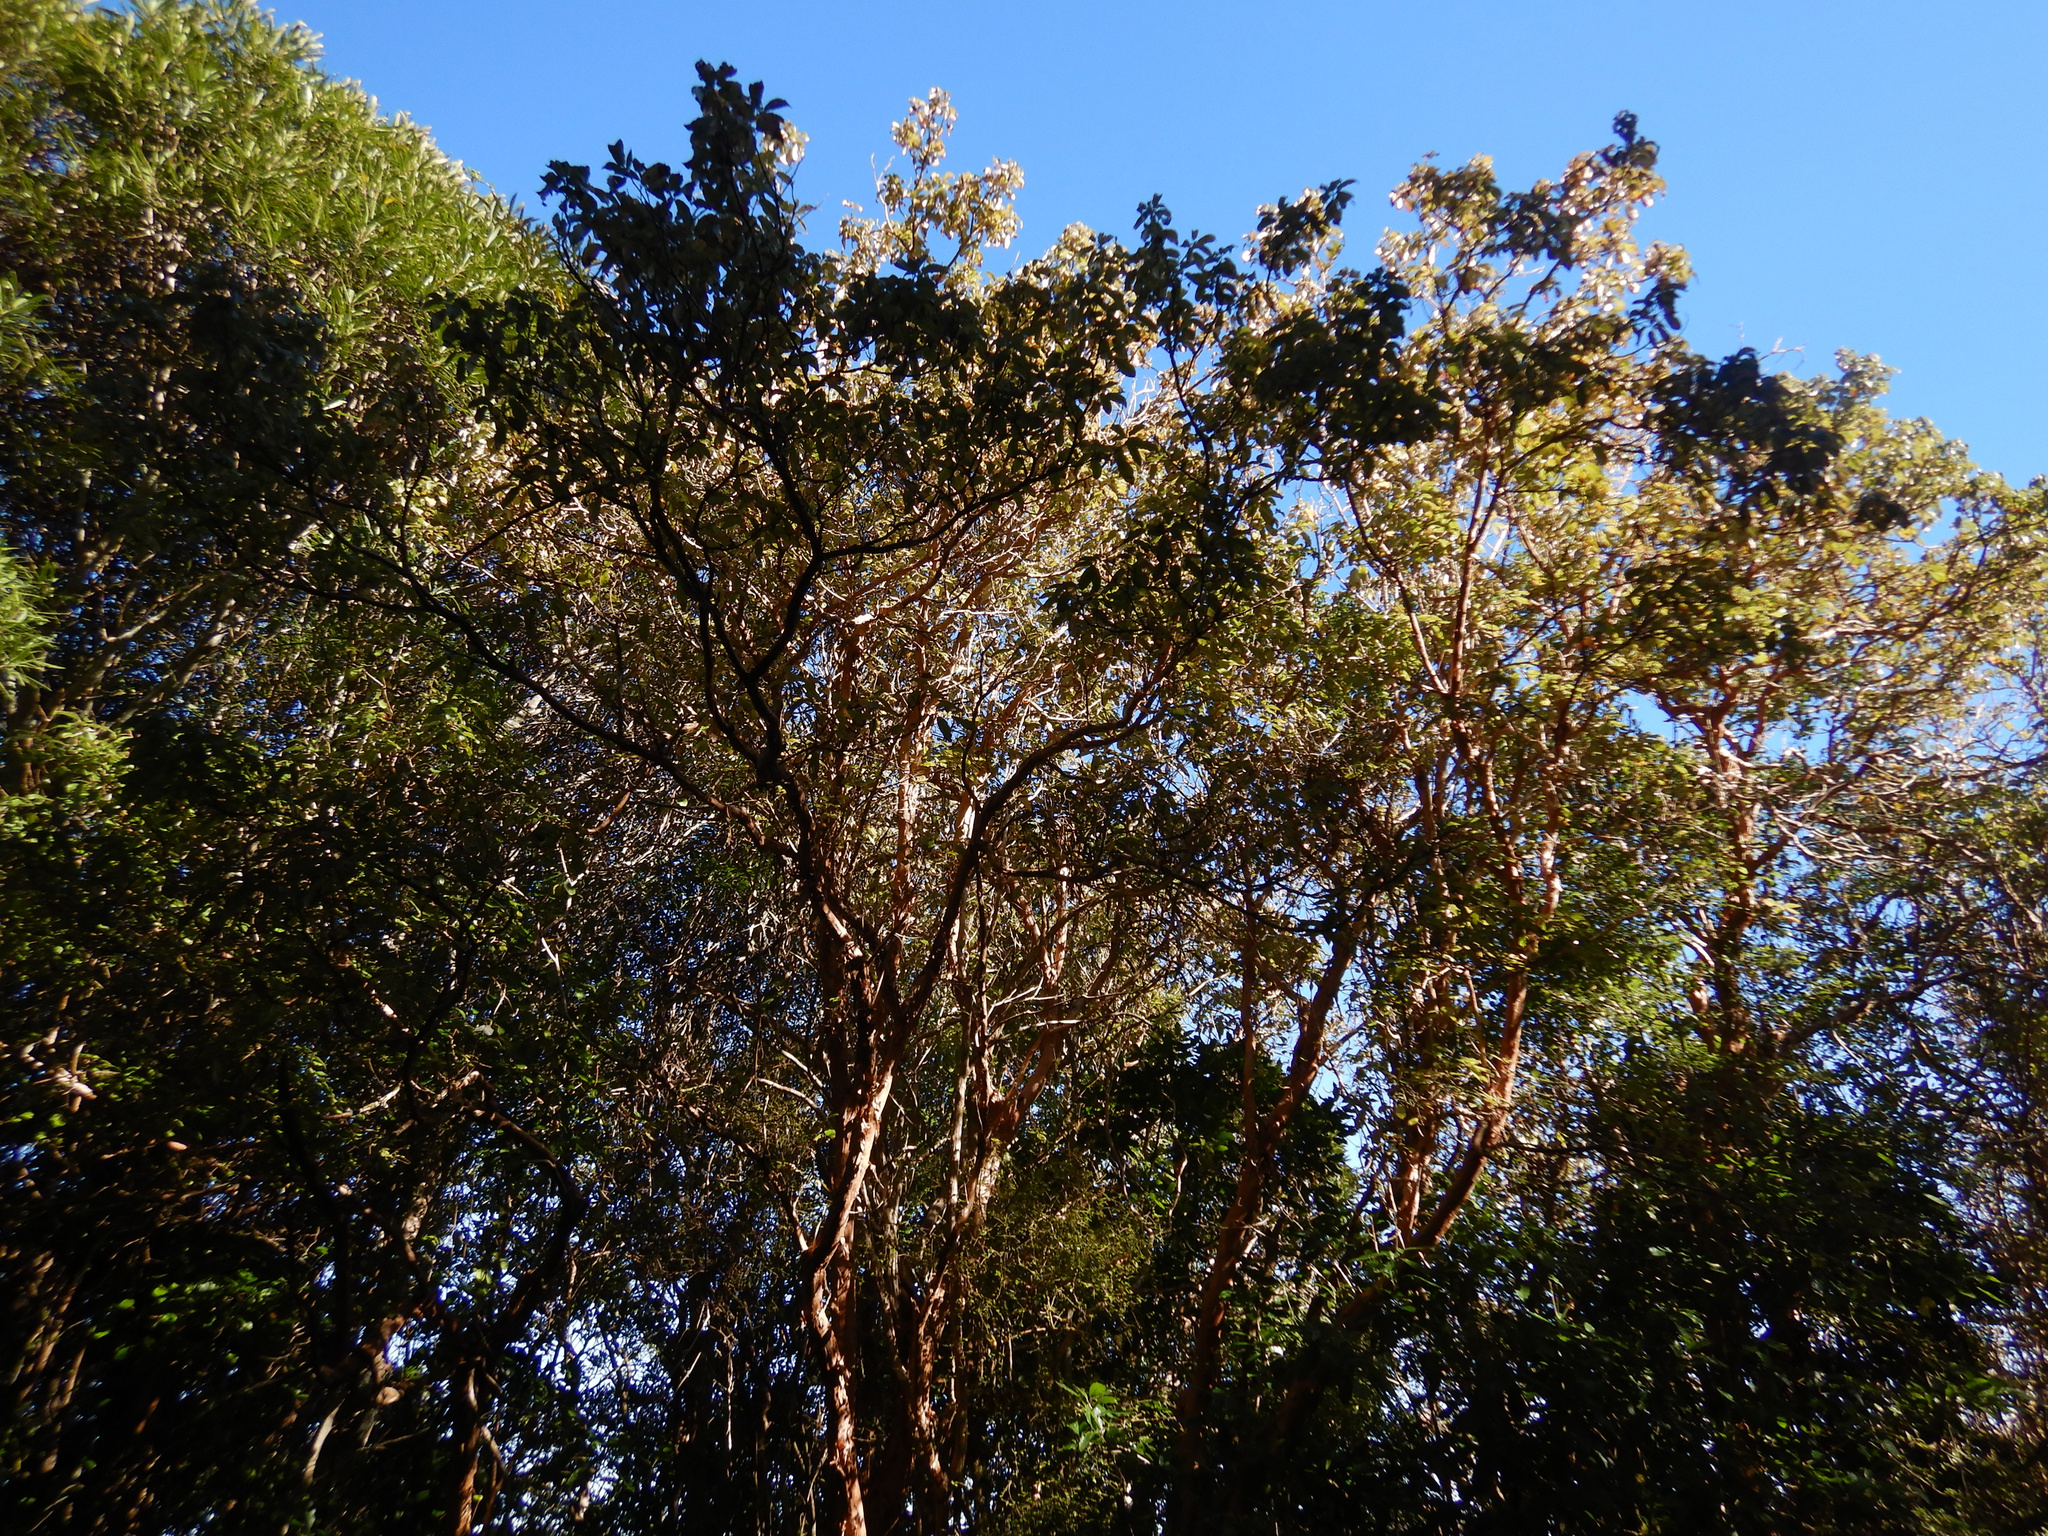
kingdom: Plantae
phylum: Tracheophyta
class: Magnoliopsida
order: Myrtales
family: Onagraceae
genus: Fuchsia
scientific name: Fuchsia excorticata
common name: Tree fuchsia
